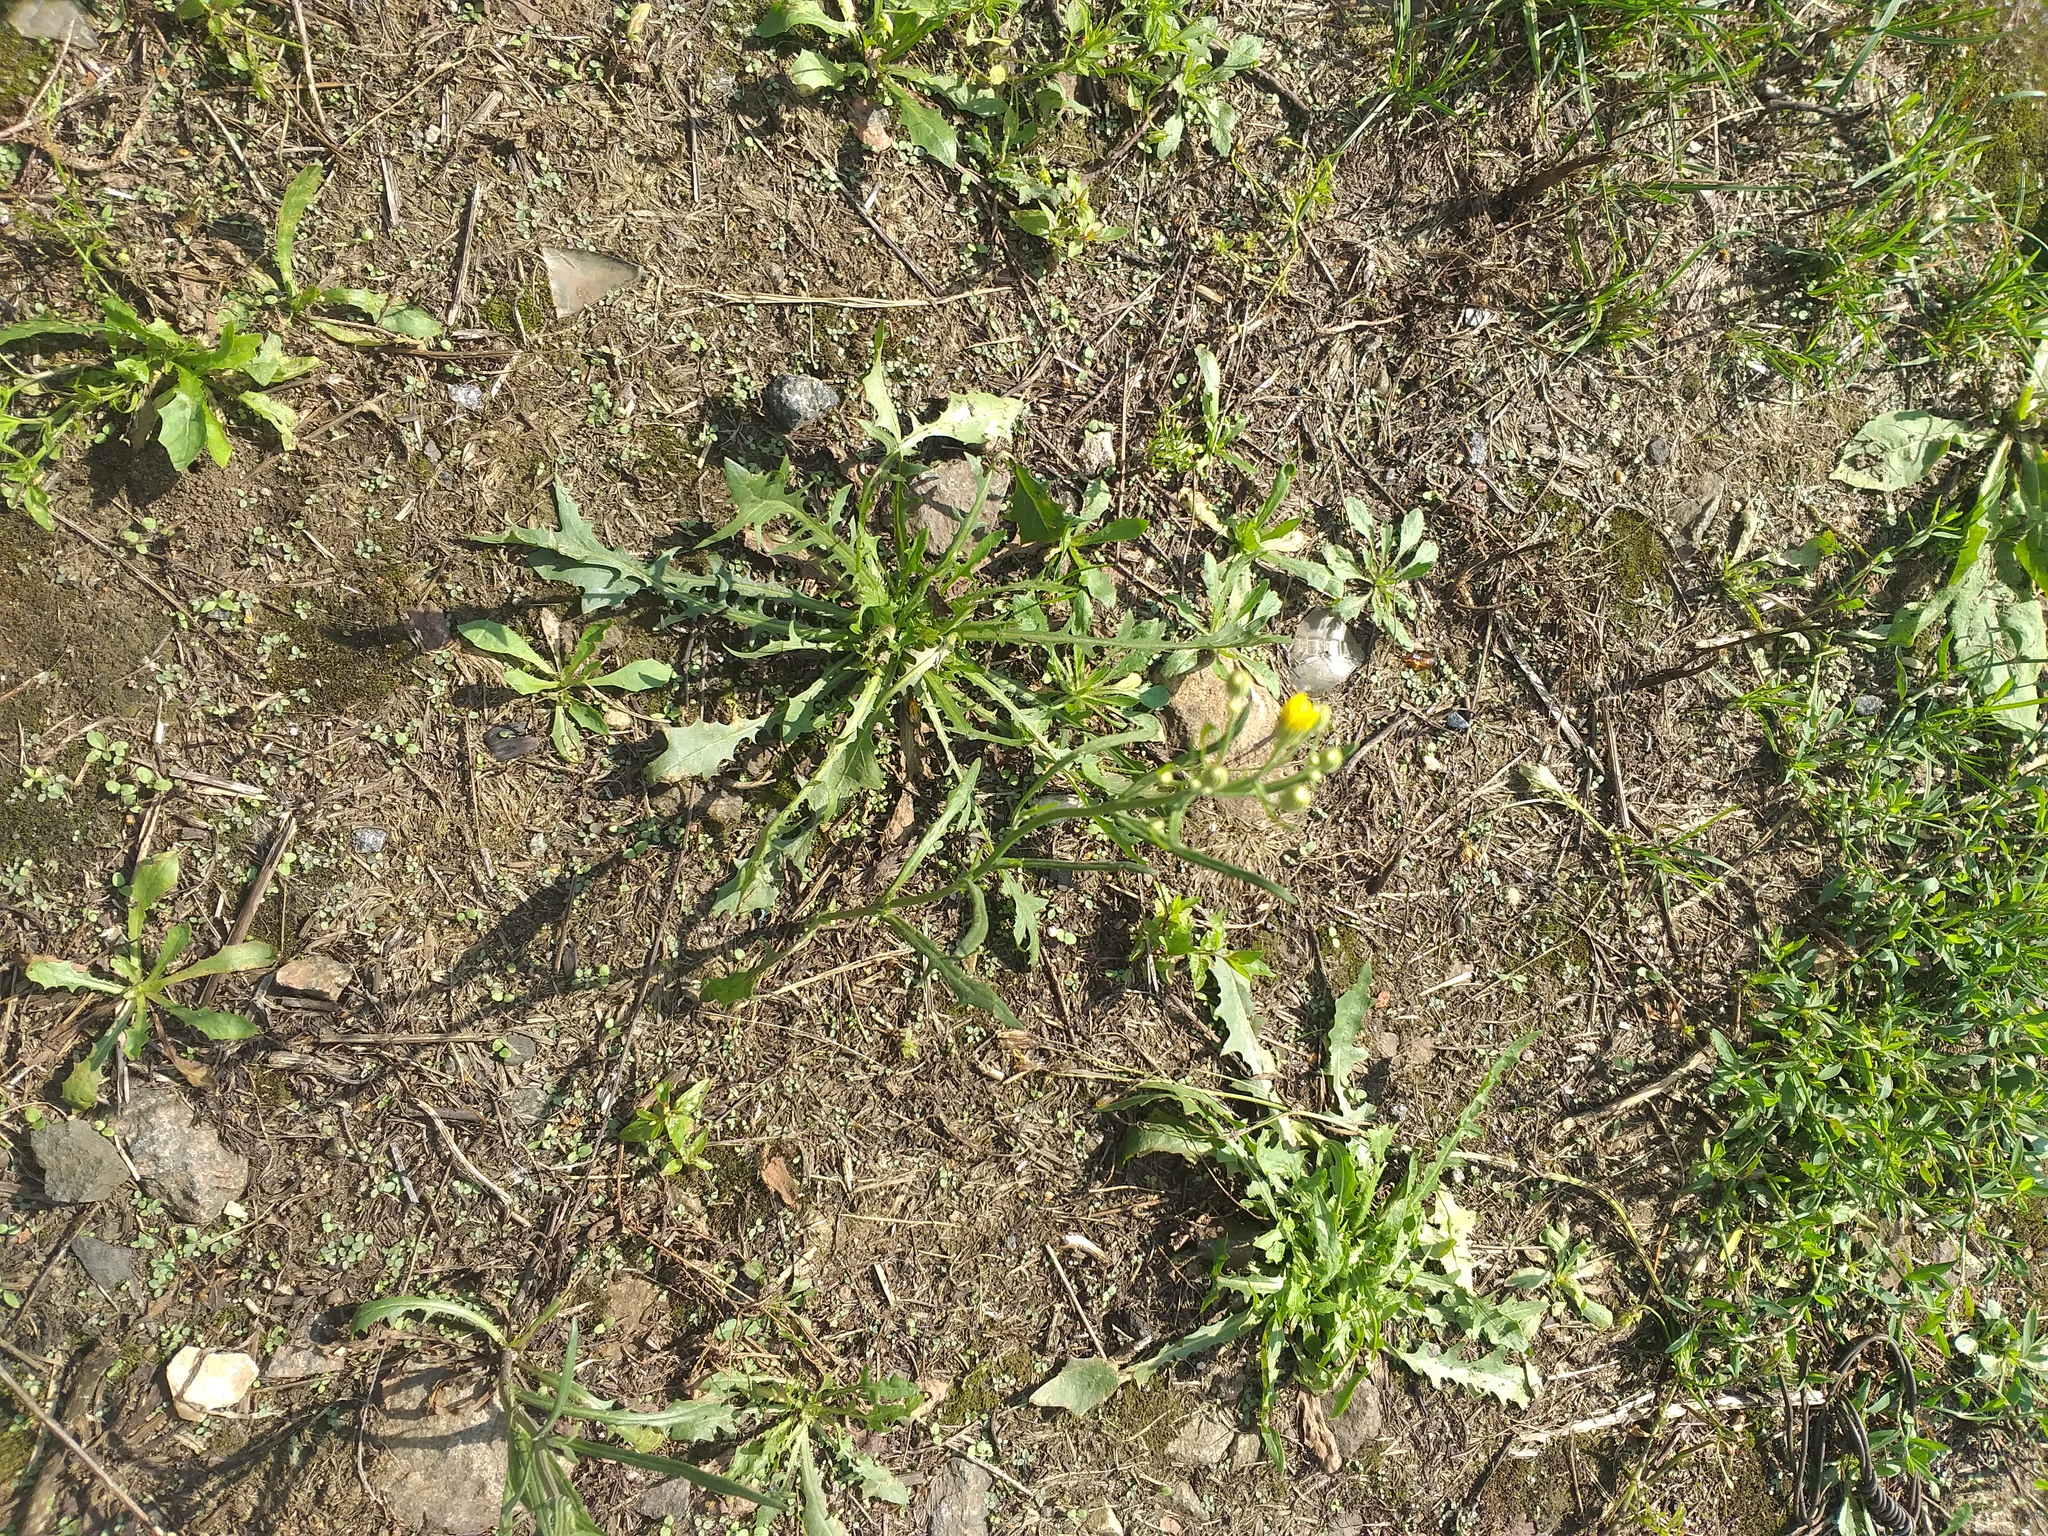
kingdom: Plantae
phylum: Tracheophyta
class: Magnoliopsida
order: Asterales
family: Asteraceae
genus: Crepis
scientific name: Crepis tectorum
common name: Narrow-leaved hawk's-beard
